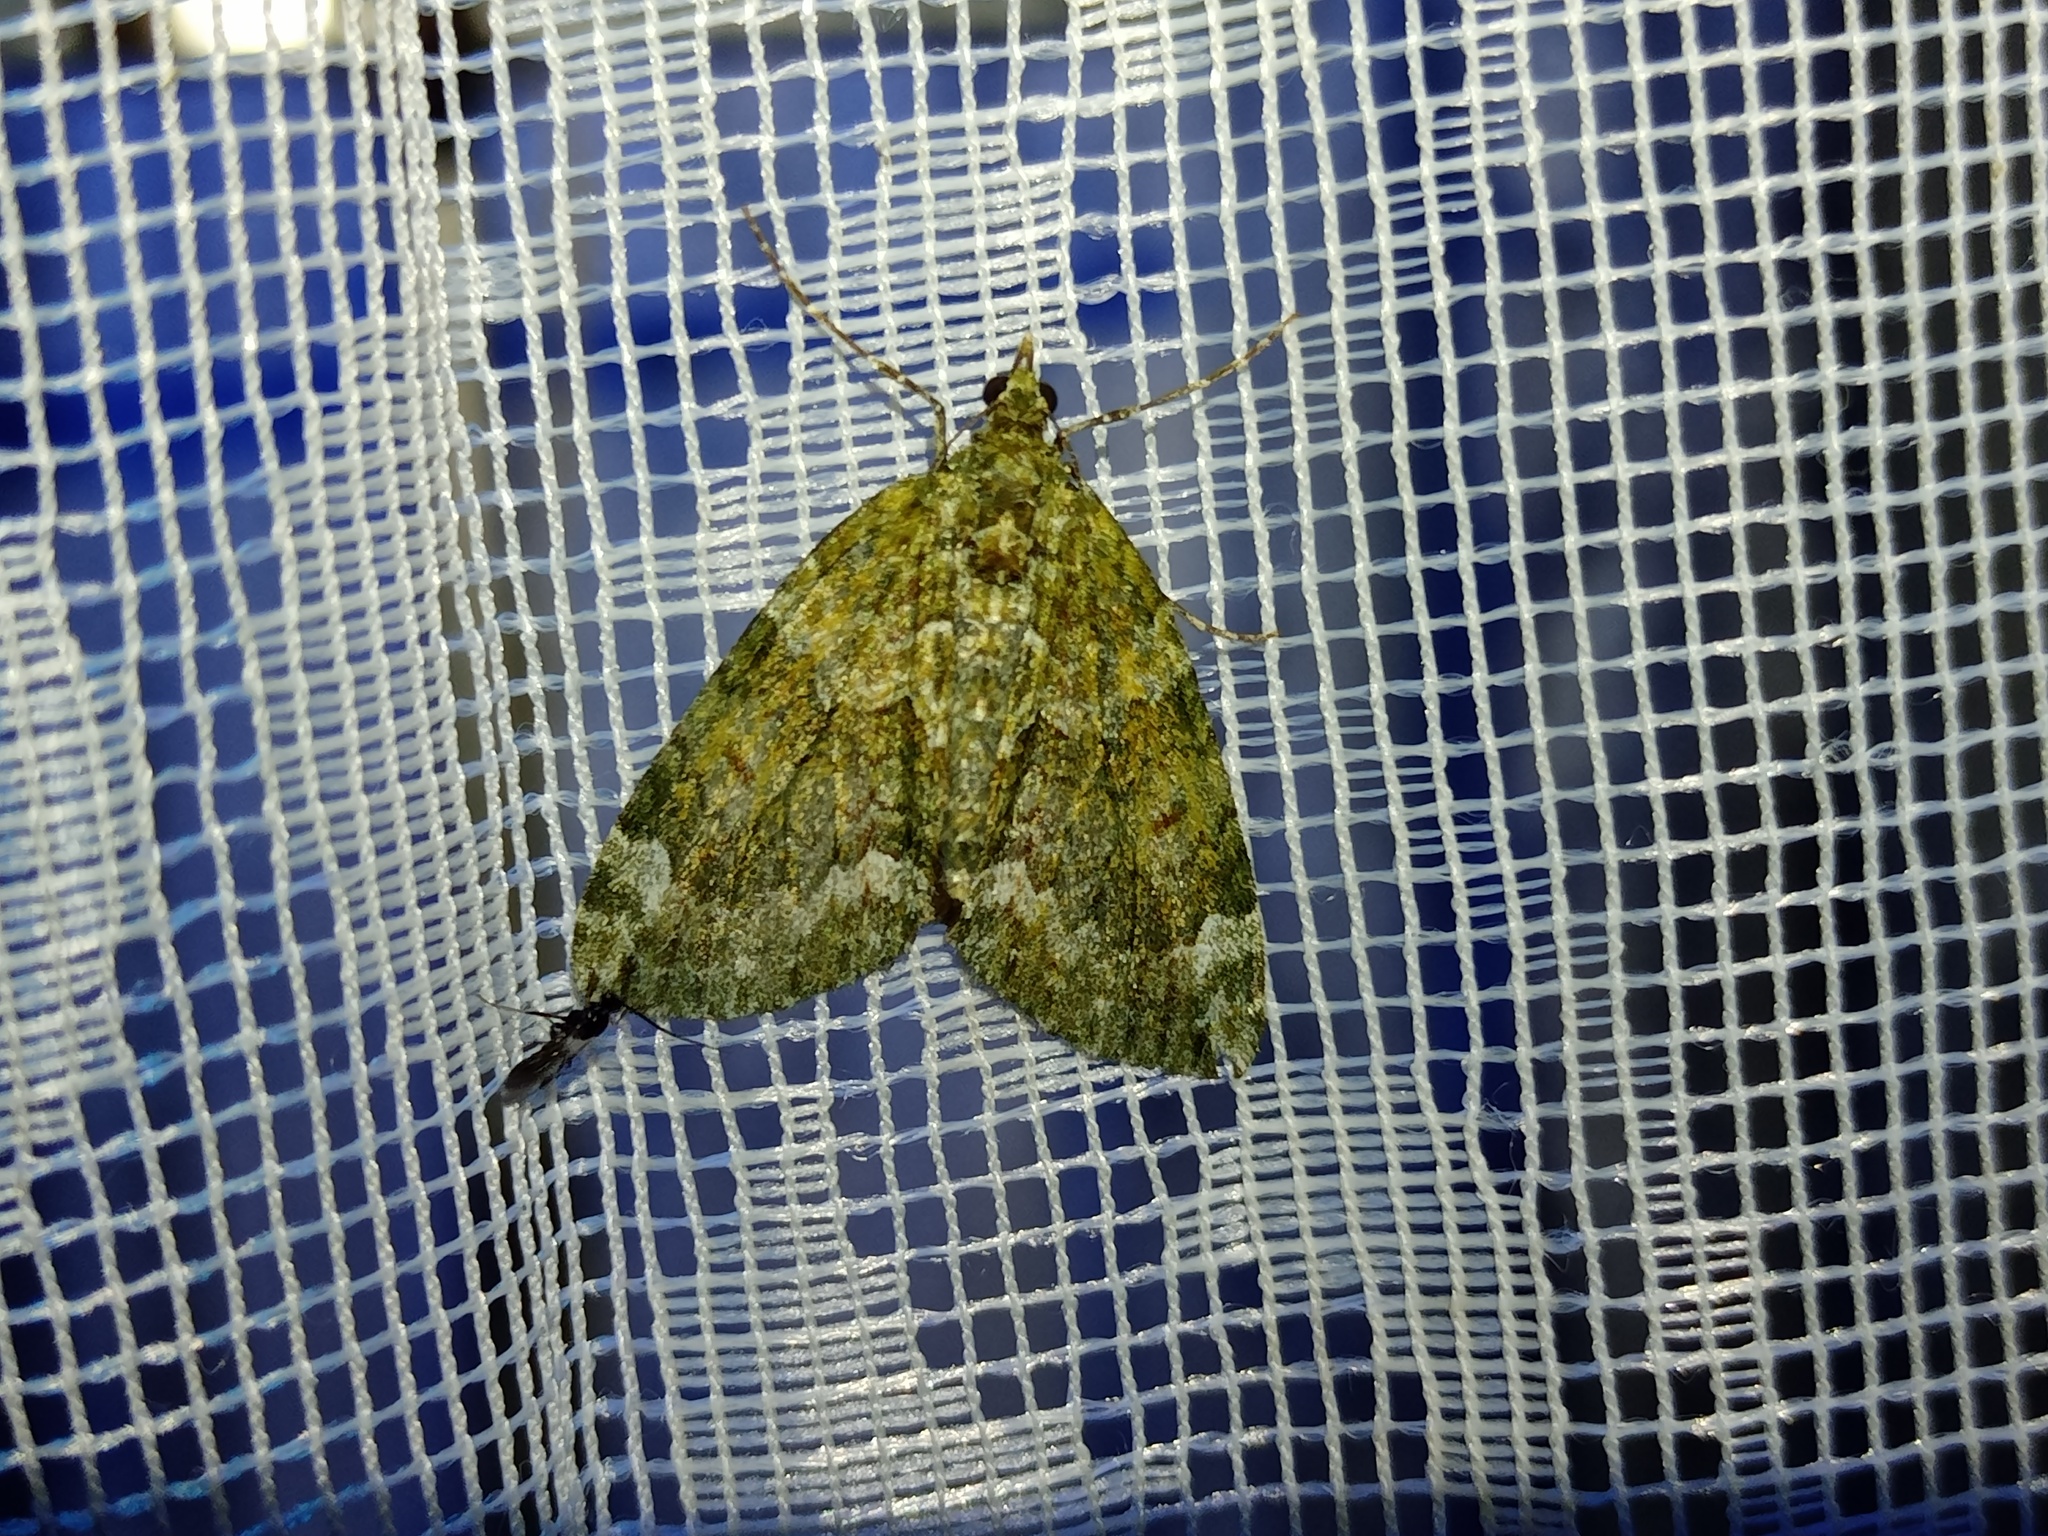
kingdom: Animalia
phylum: Arthropoda
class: Insecta
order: Lepidoptera
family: Geometridae
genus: Chloroclysta
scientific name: Chloroclysta siterata
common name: Red-green carpet
